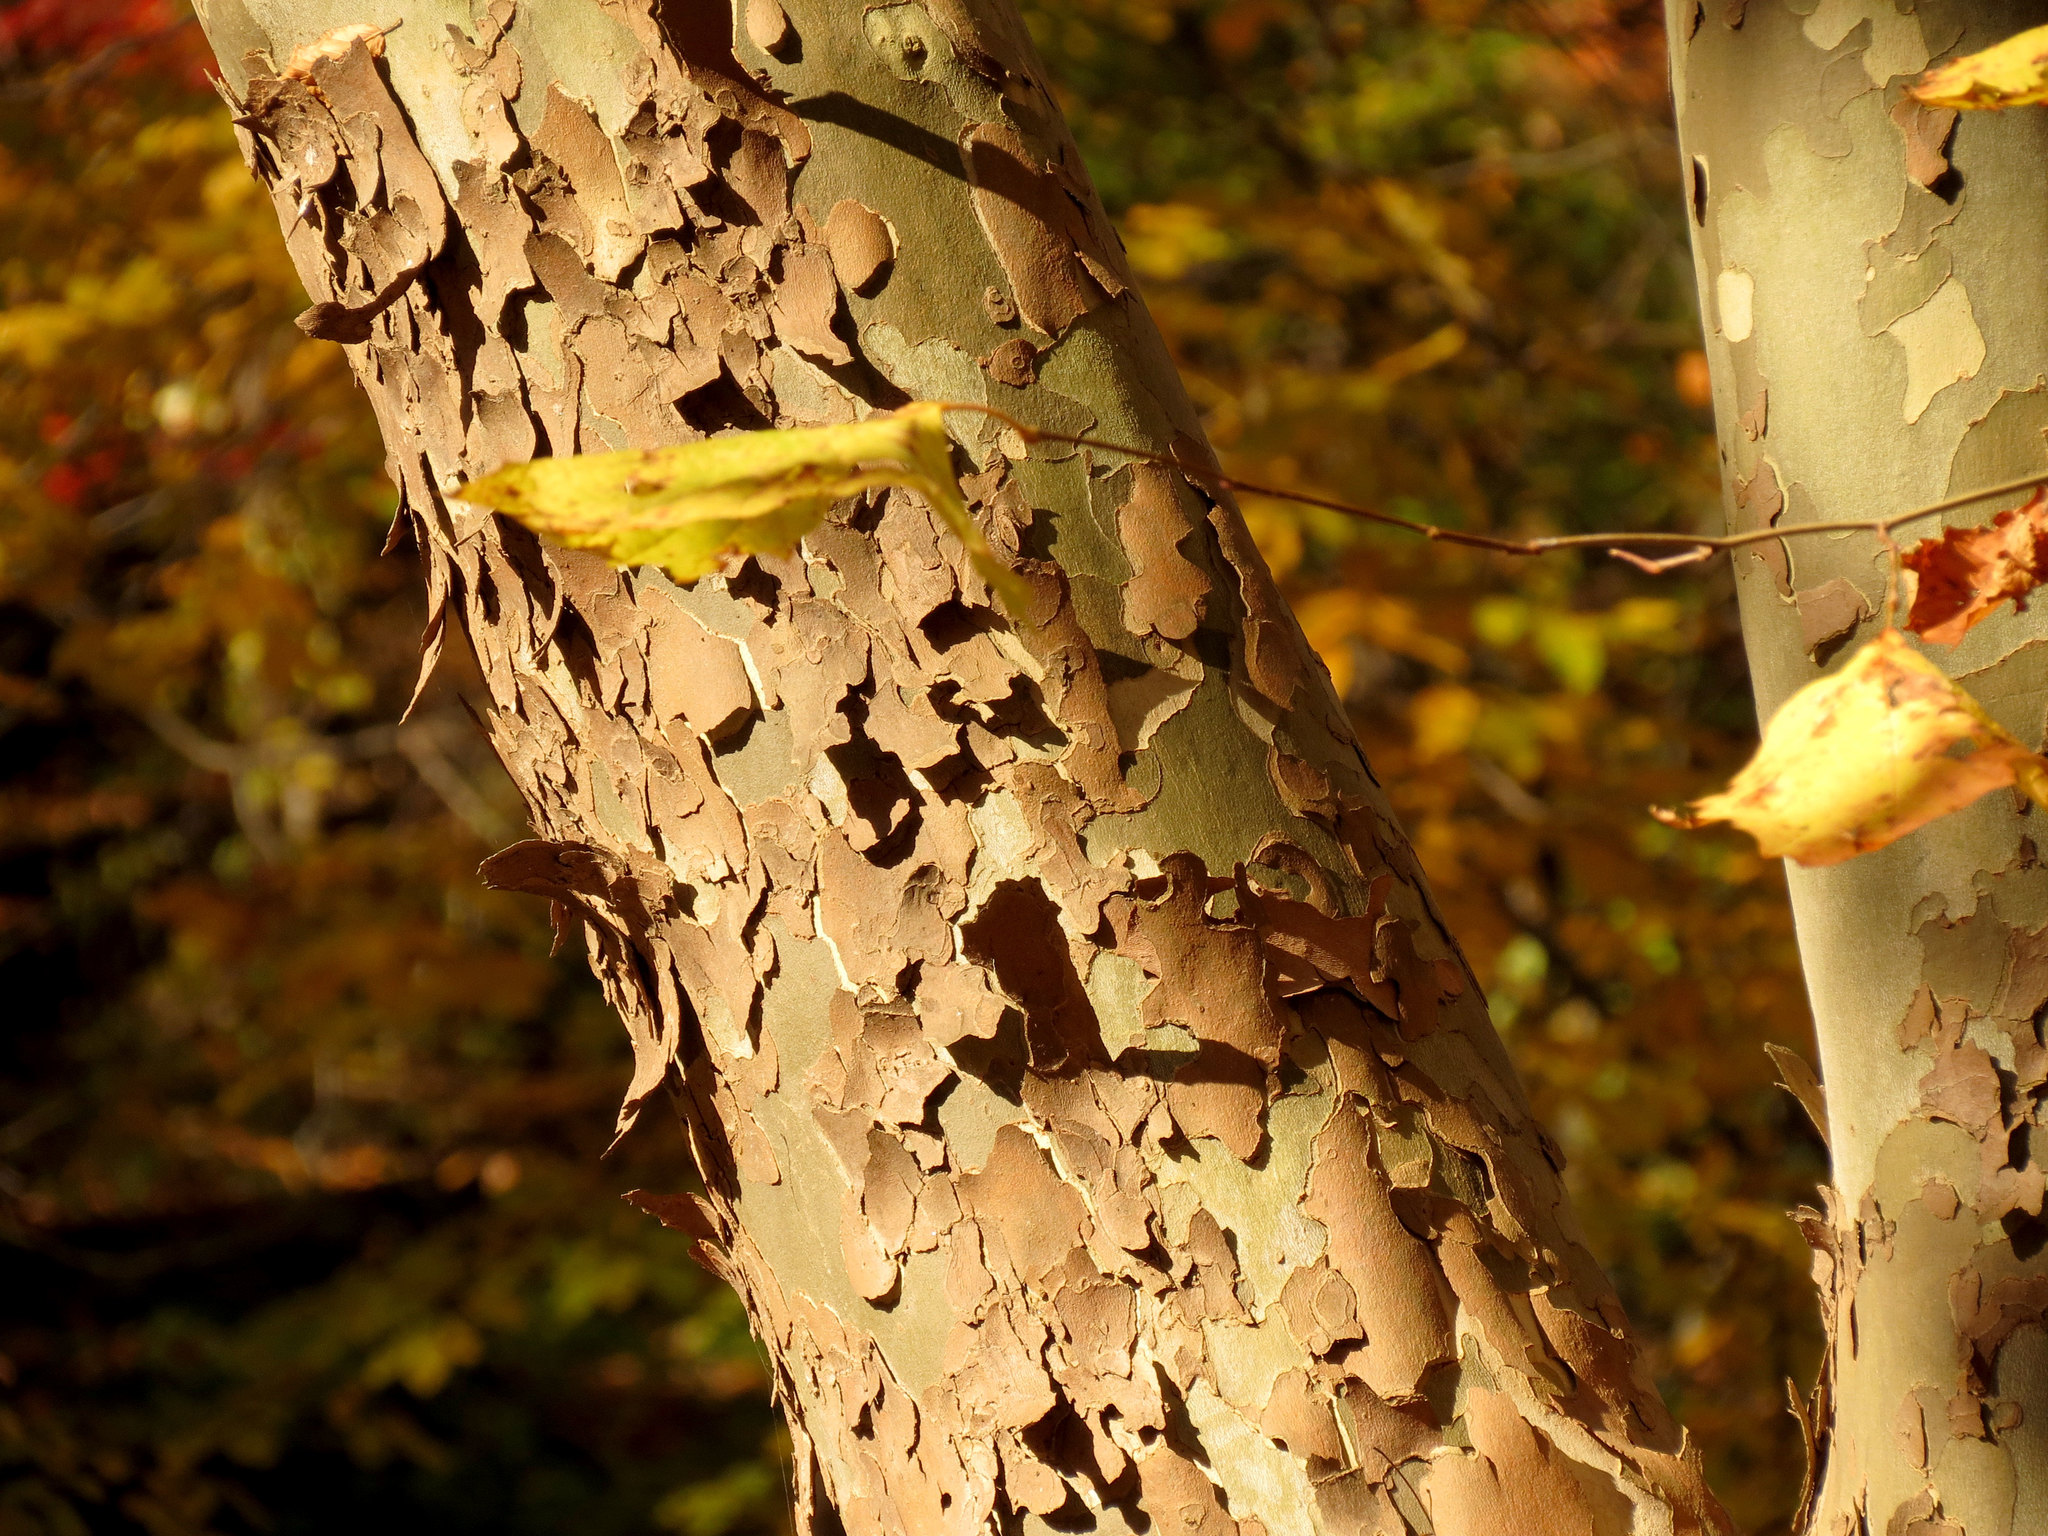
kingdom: Plantae
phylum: Tracheophyta
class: Magnoliopsida
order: Proteales
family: Platanaceae
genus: Platanus
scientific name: Platanus occidentalis
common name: American sycamore
